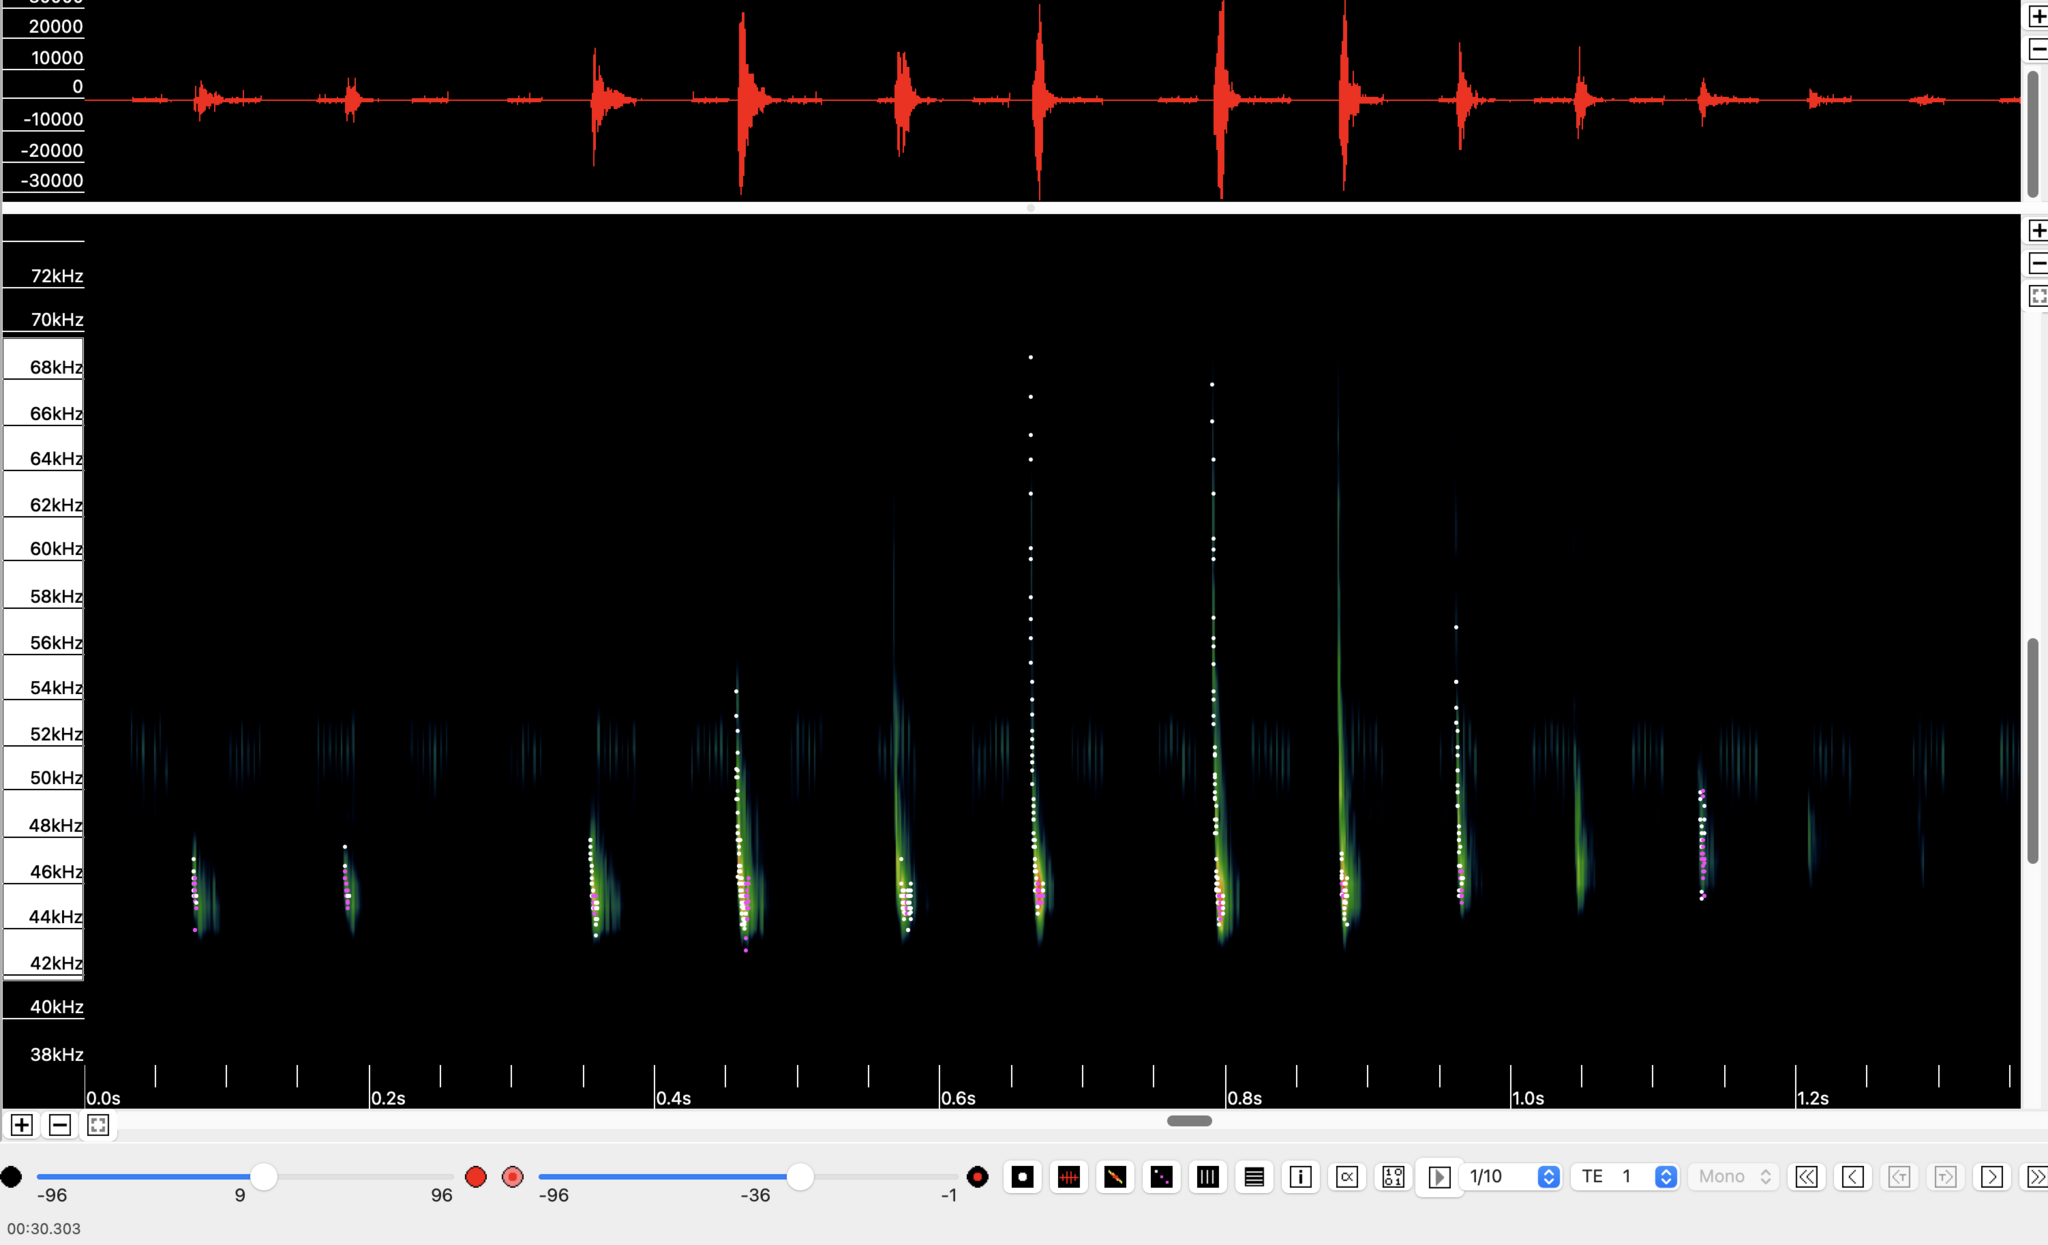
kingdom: Animalia
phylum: Chordata
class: Mammalia
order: Chiroptera
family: Vespertilionidae
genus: Pipistrellus
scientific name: Pipistrellus pipistrellus
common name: Common pipistrelle
